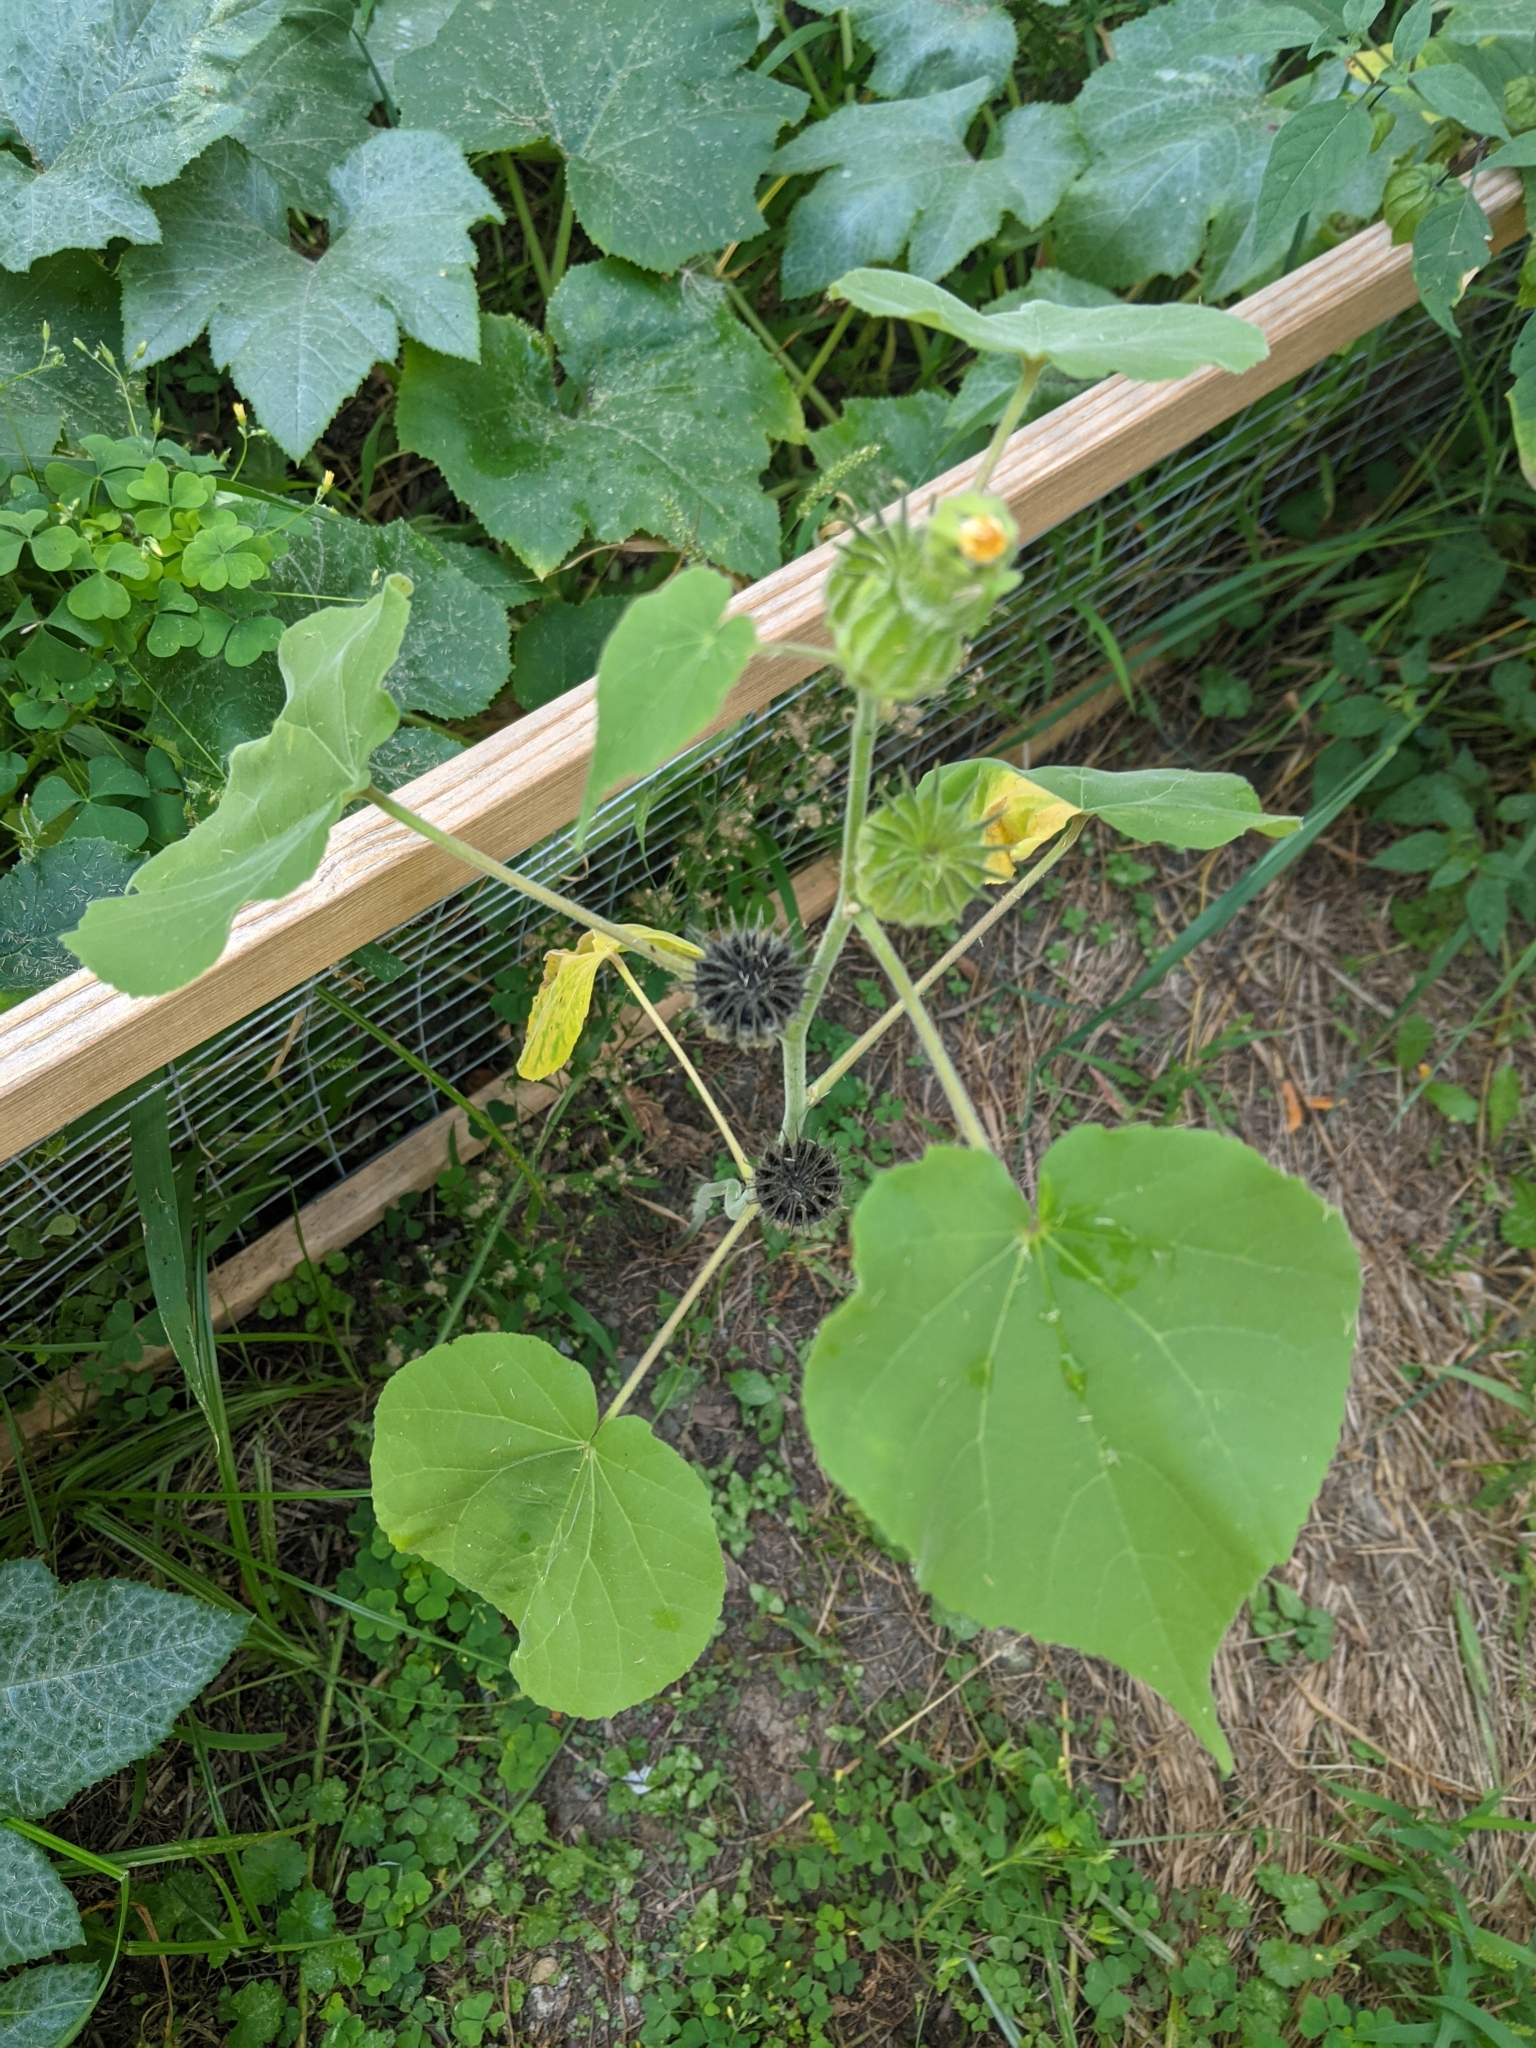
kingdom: Plantae
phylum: Tracheophyta
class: Magnoliopsida
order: Malvales
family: Malvaceae
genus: Abutilon
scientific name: Abutilon theophrasti
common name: Velvetleaf
